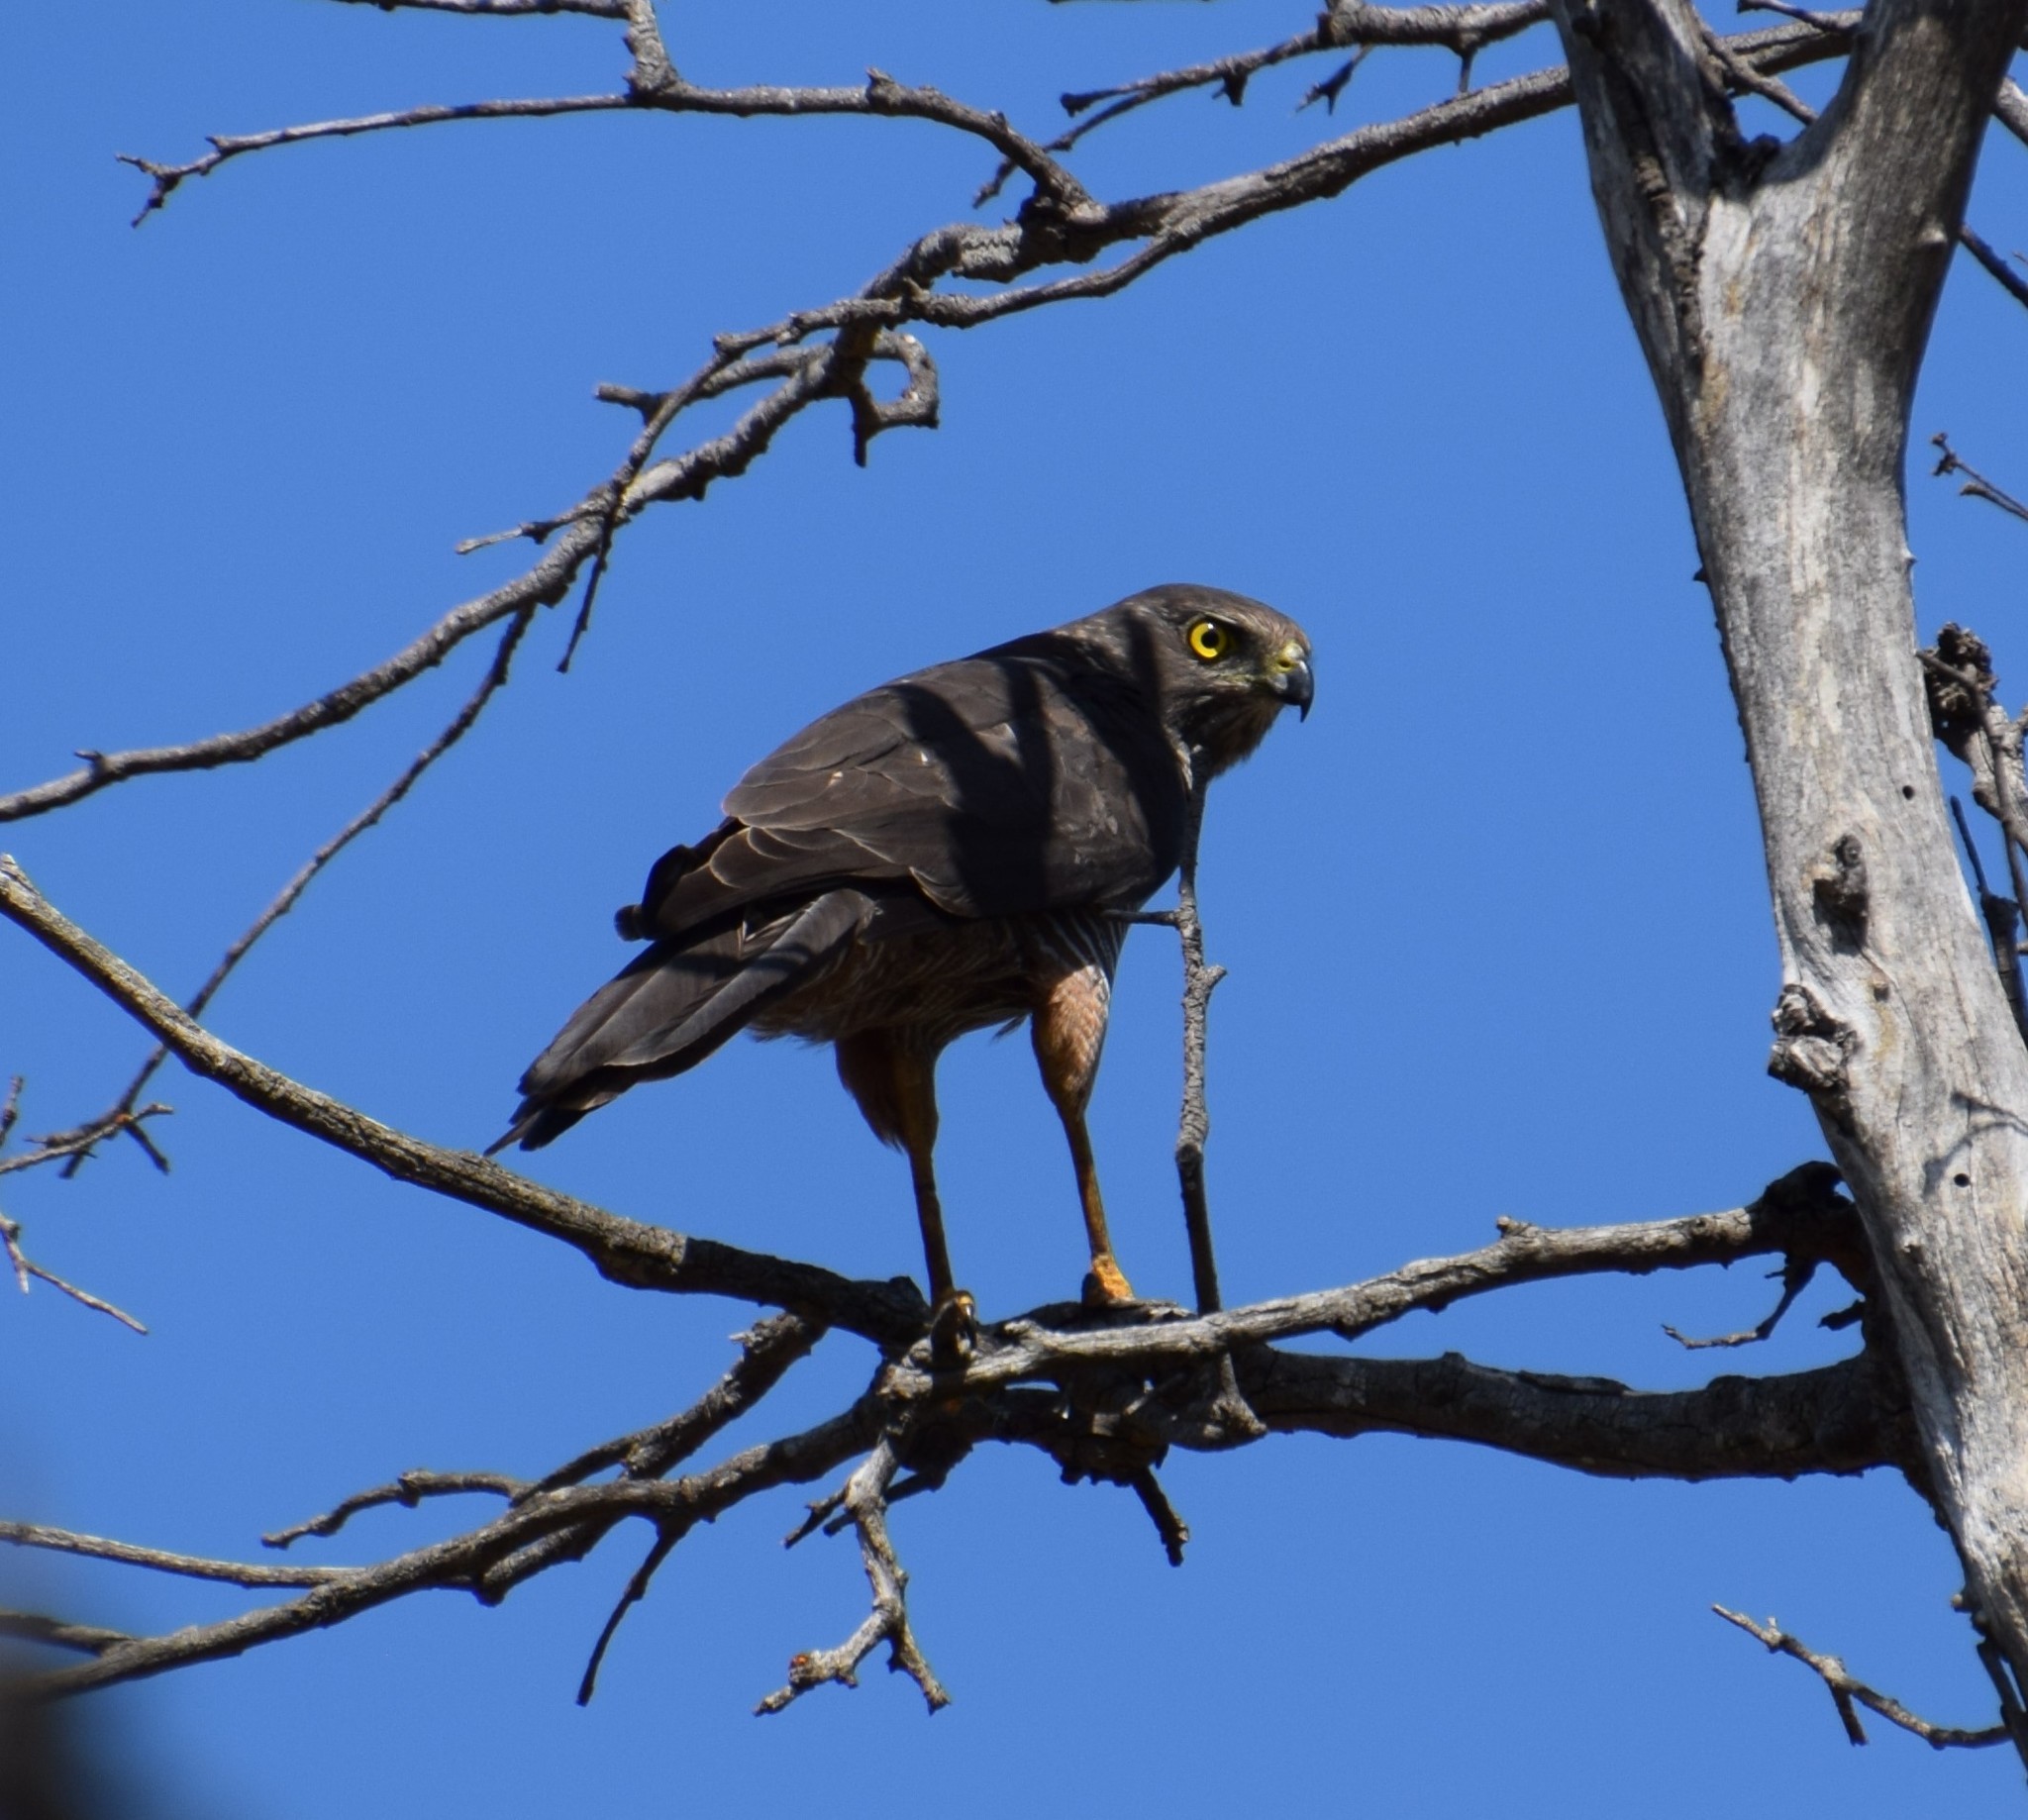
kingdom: Animalia
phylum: Chordata
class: Aves
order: Accipitriformes
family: Accipitridae
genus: Accipiter
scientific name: Accipiter fasciatus
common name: Brown goshawk
